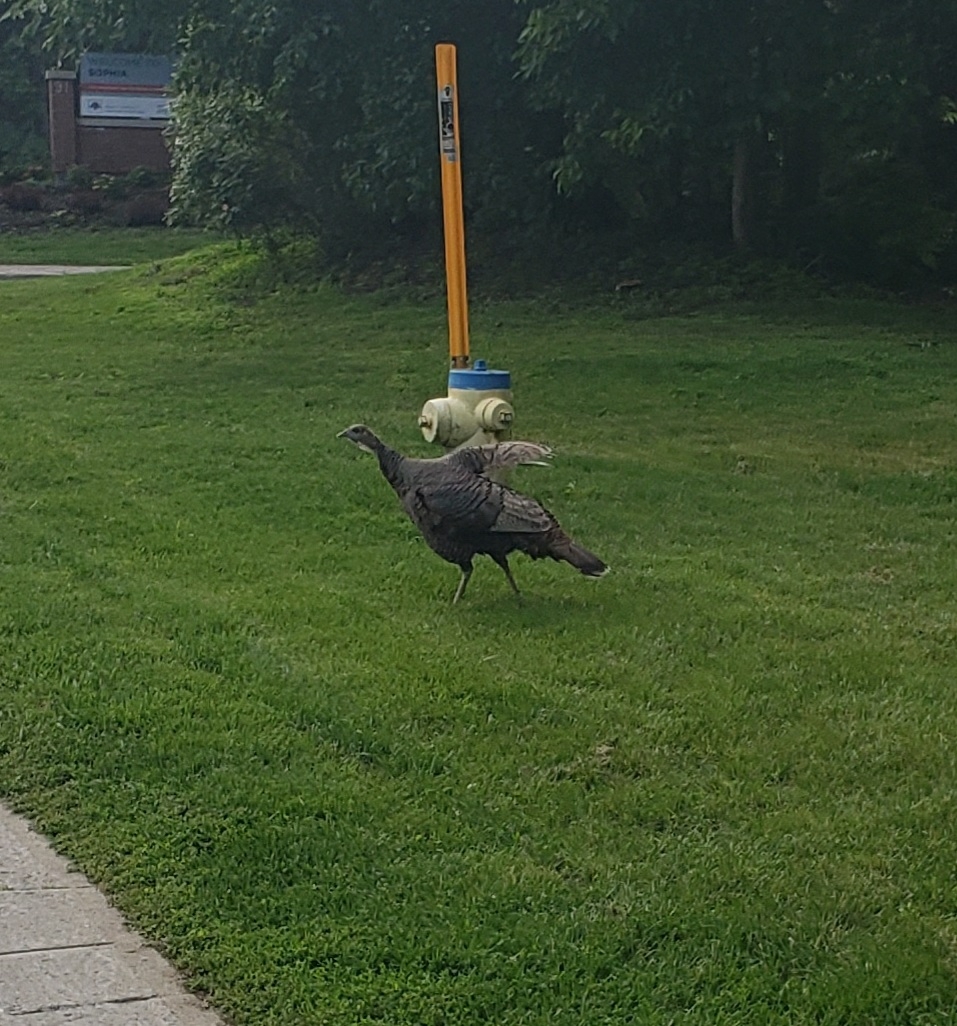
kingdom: Animalia
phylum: Chordata
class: Aves
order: Galliformes
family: Phasianidae
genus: Meleagris
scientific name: Meleagris gallopavo
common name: Wild turkey
